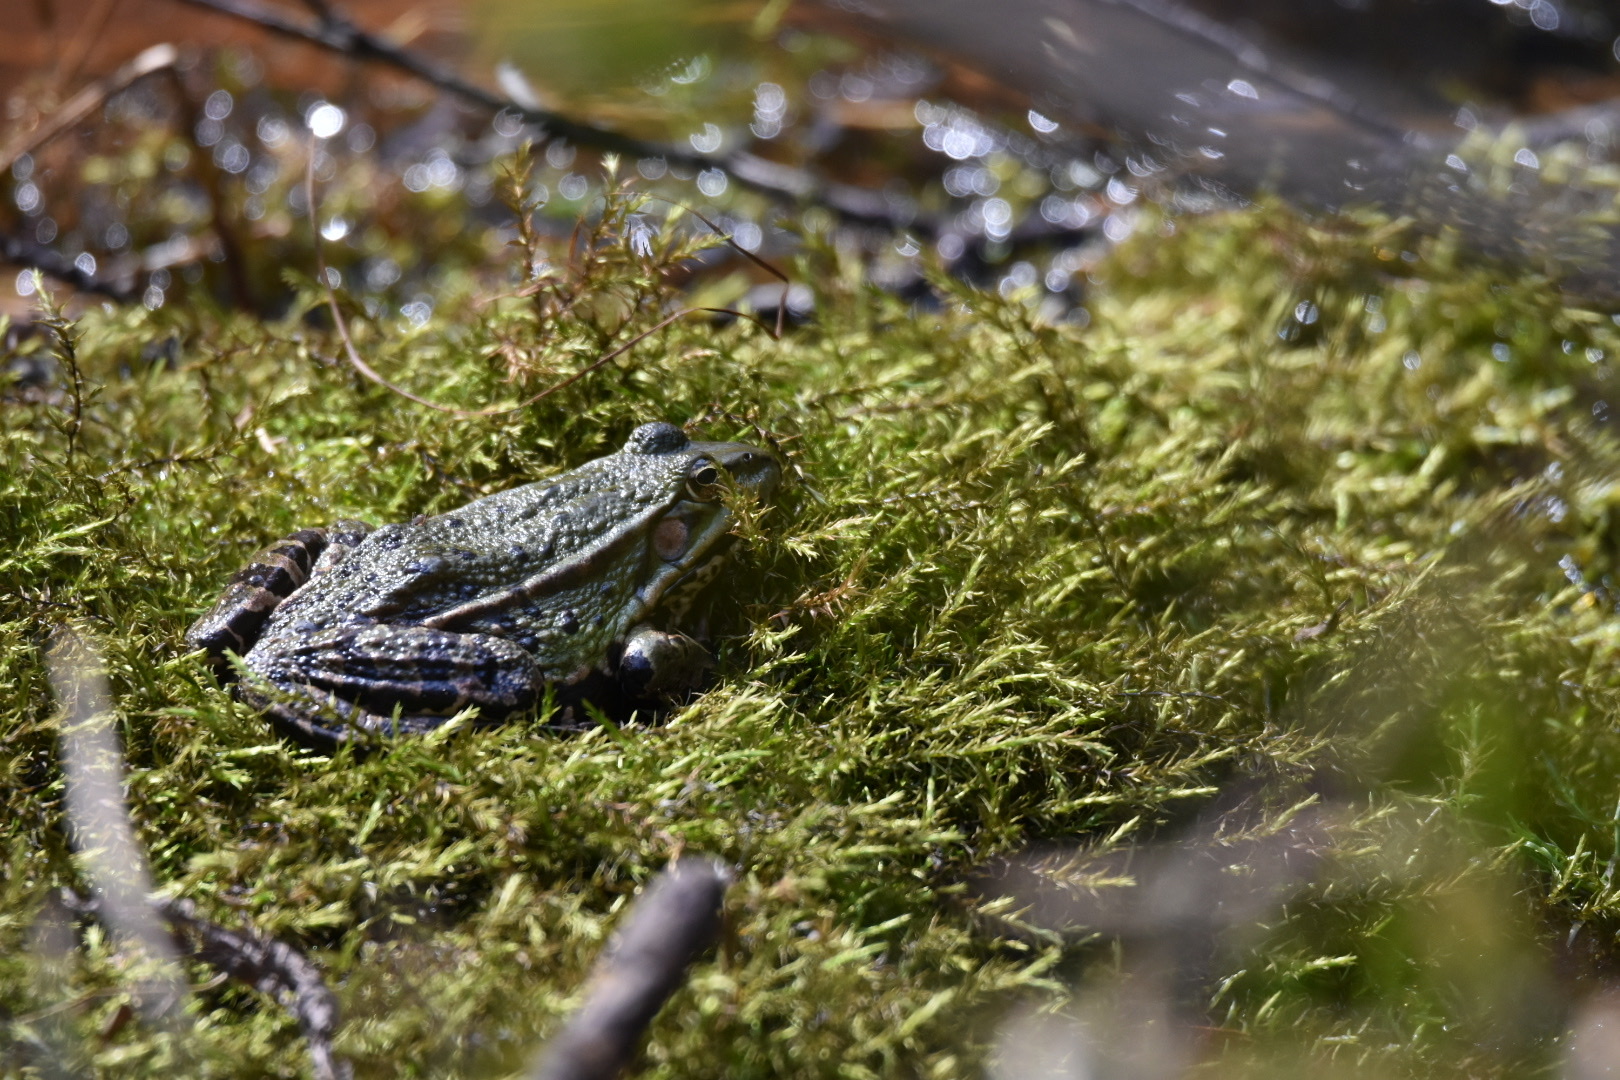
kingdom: Animalia
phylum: Chordata
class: Amphibia
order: Anura
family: Ranidae
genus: Pelophylax
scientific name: Pelophylax
